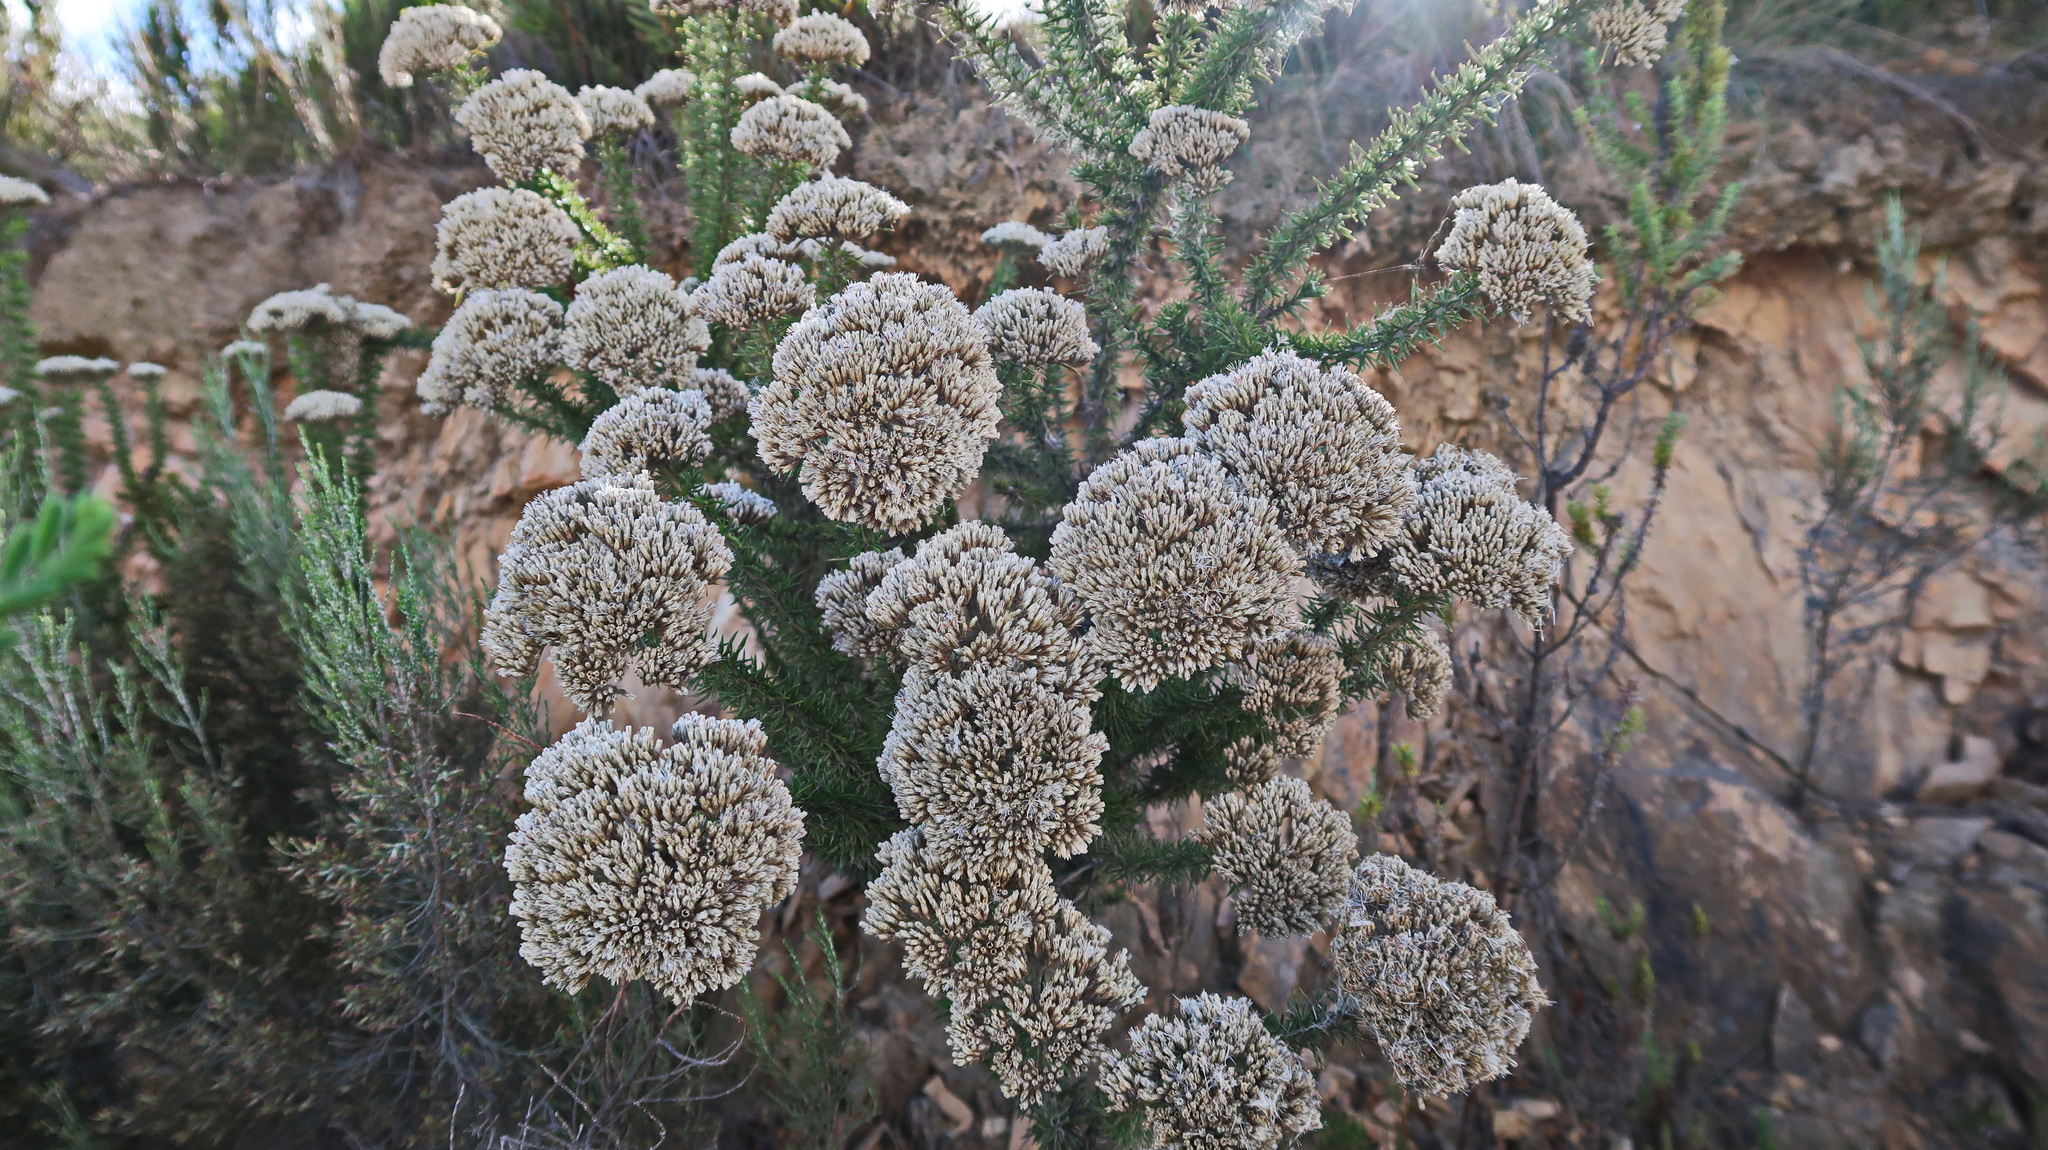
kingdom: Plantae
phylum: Tracheophyta
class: Magnoliopsida
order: Asterales
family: Asteraceae
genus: Metalasia
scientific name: Metalasia acuta
